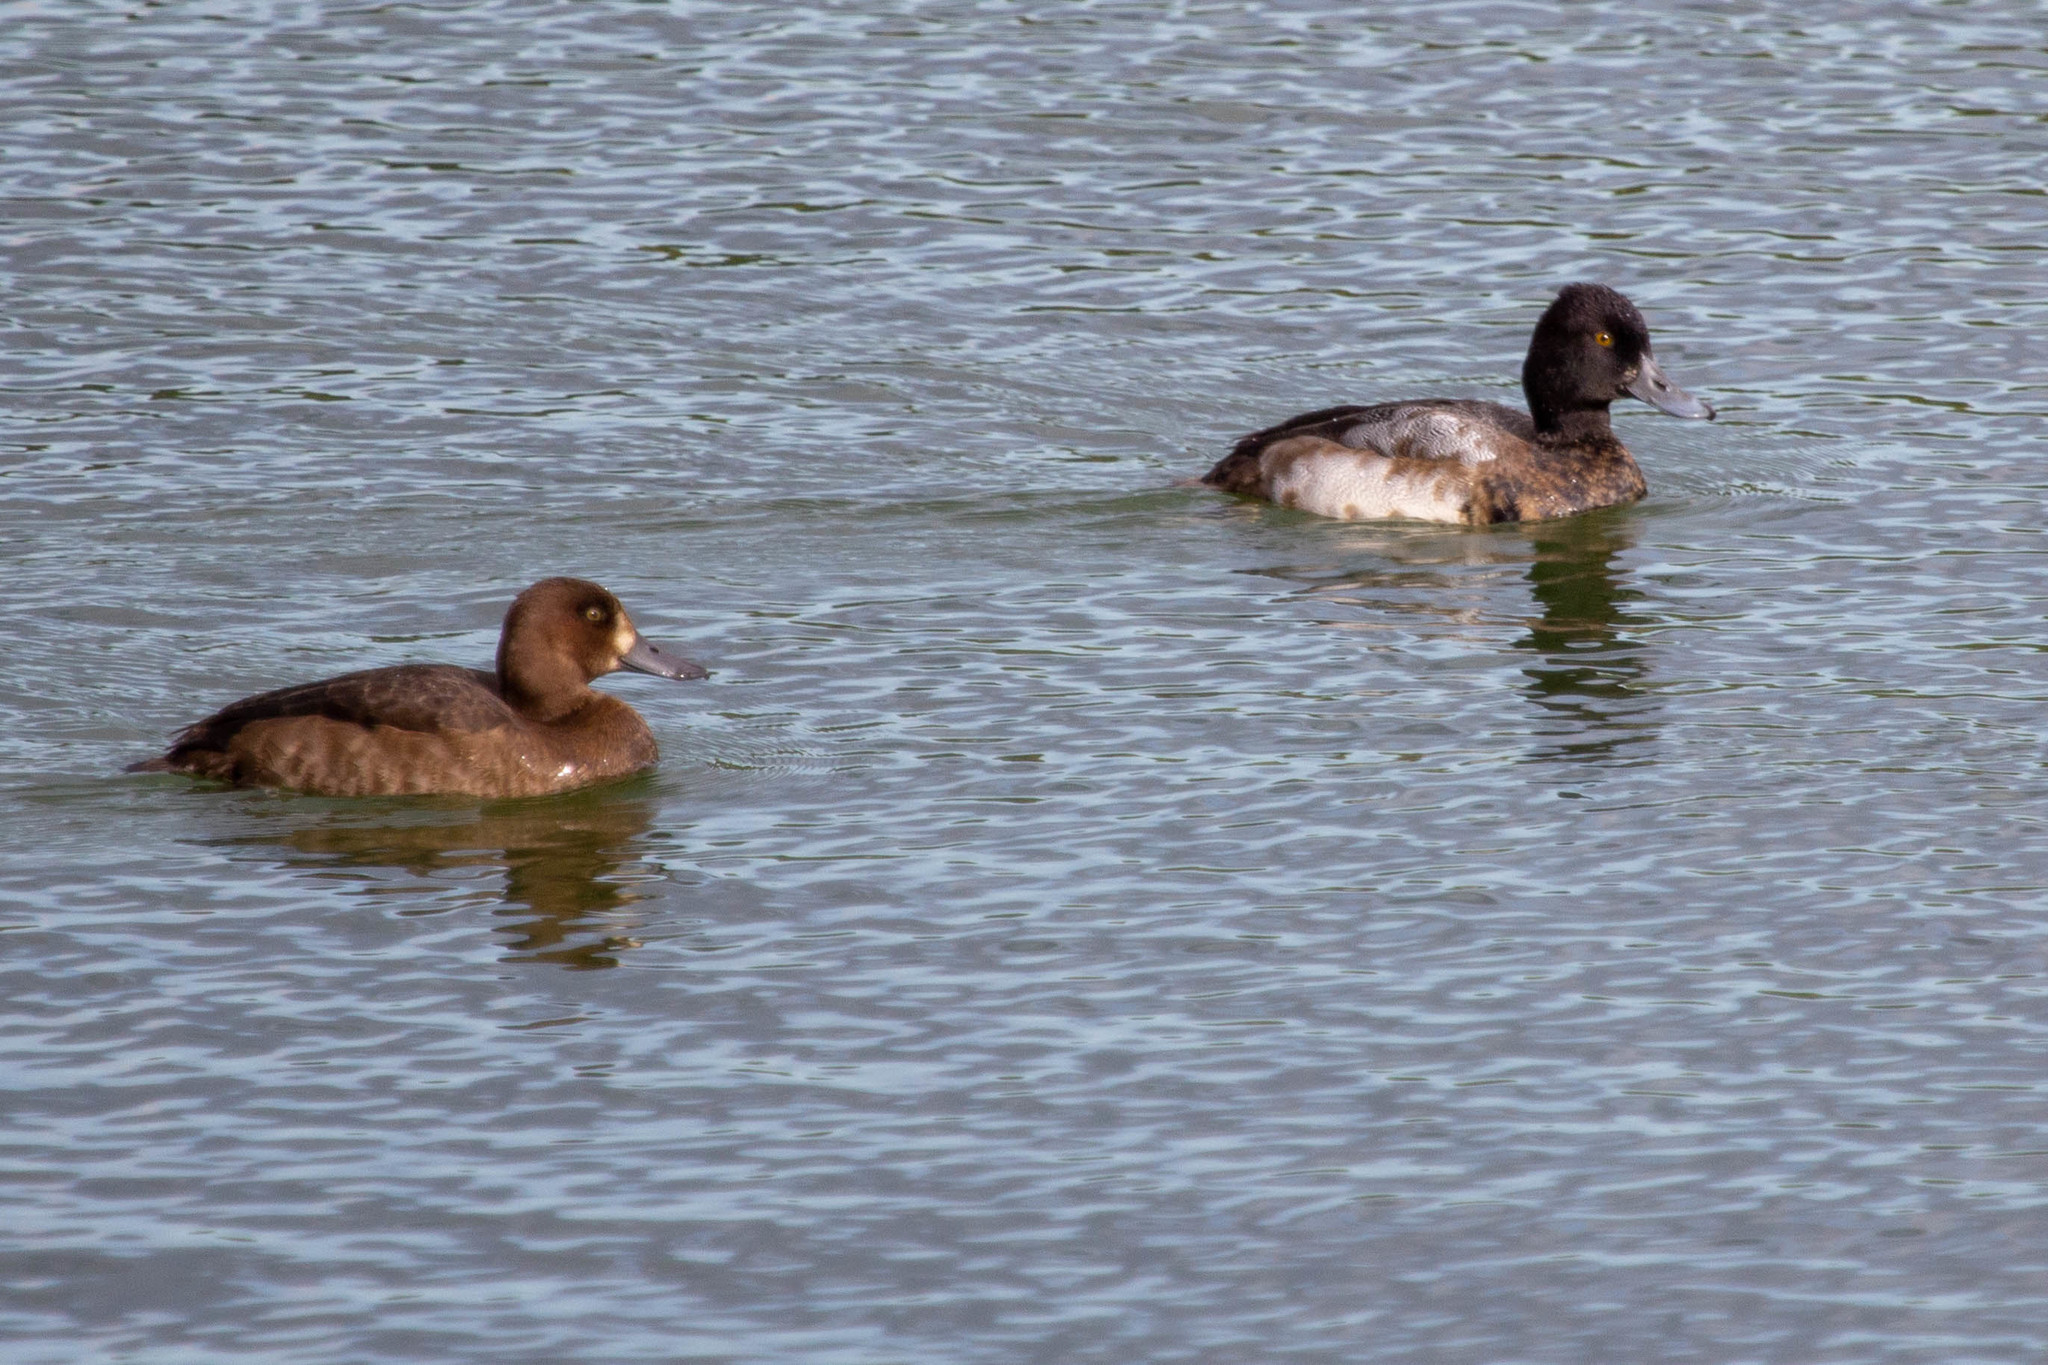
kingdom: Animalia
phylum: Chordata
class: Aves
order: Anseriformes
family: Anatidae
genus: Aythya
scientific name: Aythya affinis
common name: Lesser scaup
